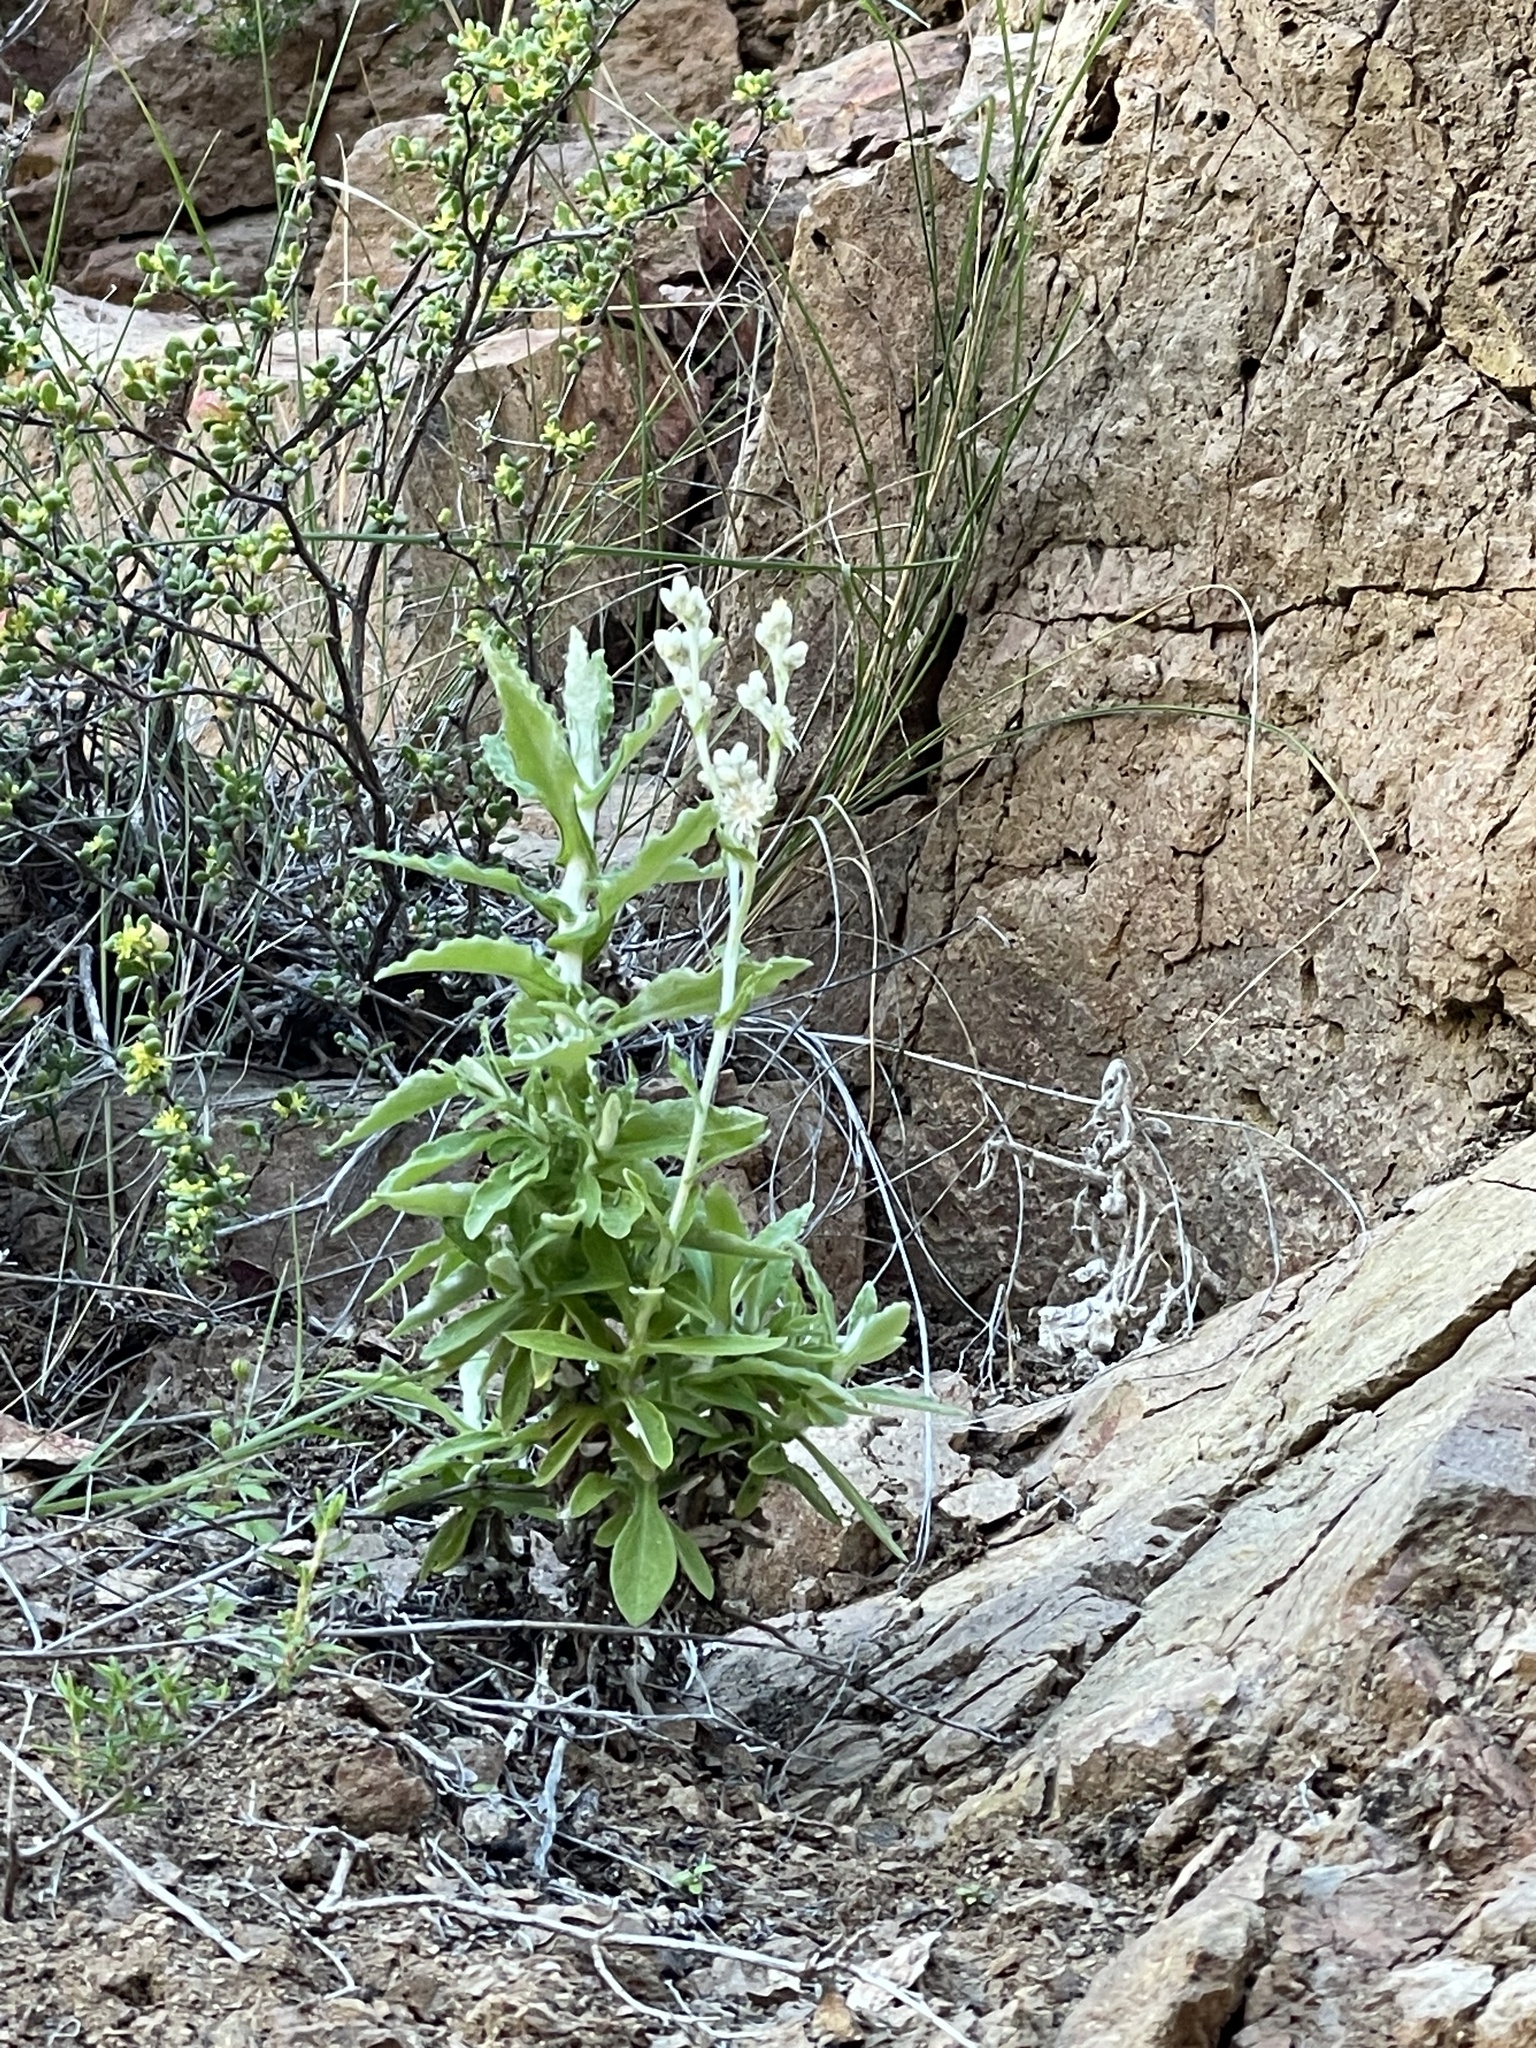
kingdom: Plantae
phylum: Tracheophyta
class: Magnoliopsida
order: Asterales
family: Asteraceae
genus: Pseudognaphalium
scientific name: Pseudognaphalium biolettii
